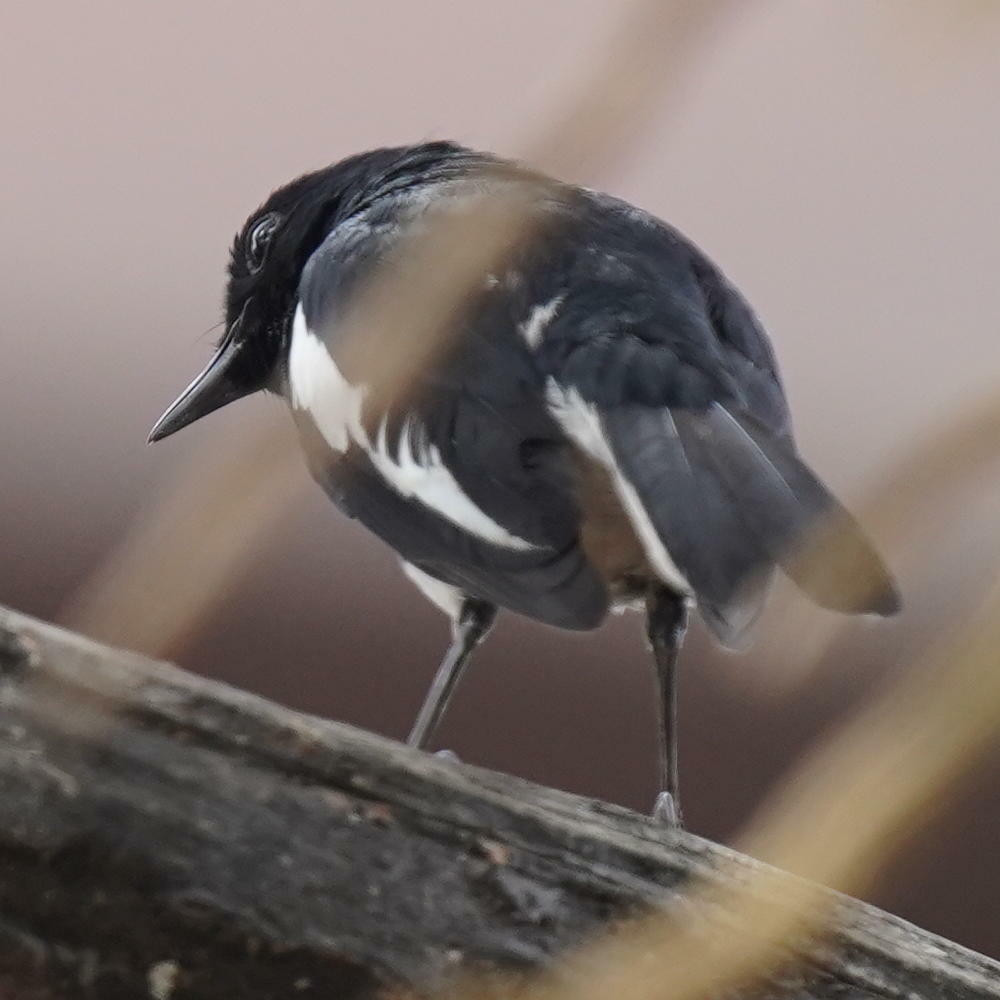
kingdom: Animalia
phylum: Chordata
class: Aves
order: Passeriformes
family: Muscicapidae
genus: Copsychus
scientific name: Copsychus saularis
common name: Oriental magpie-robin
